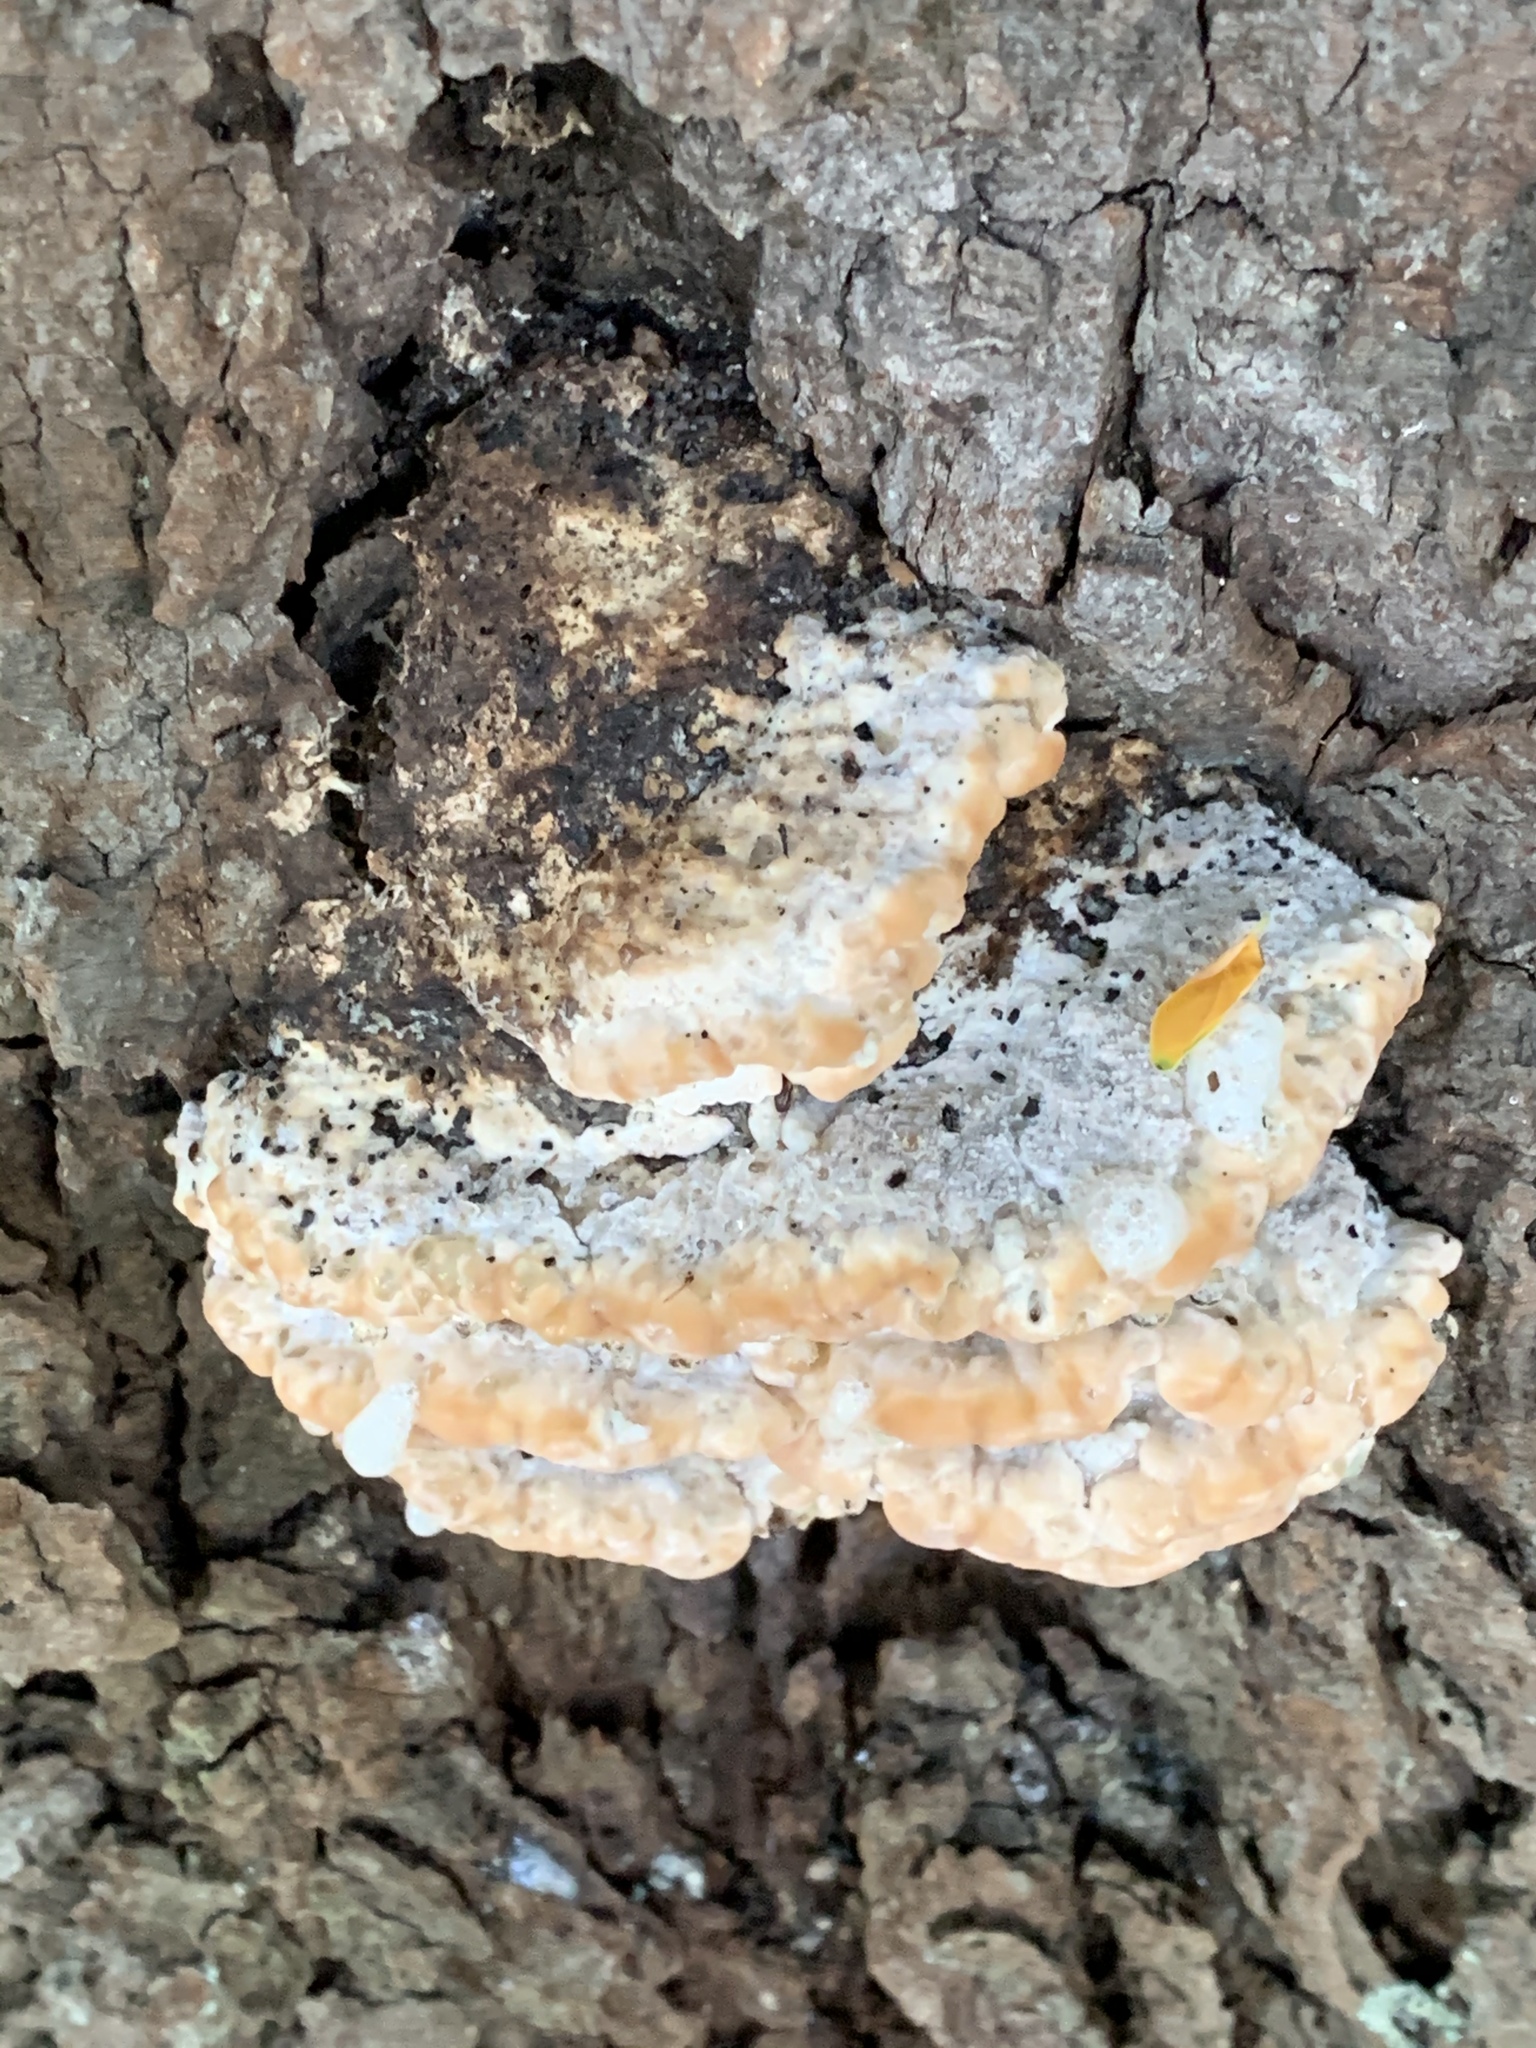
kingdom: Fungi
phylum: Basidiomycota
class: Agaricomycetes
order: Polyporales
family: Fomitopsidaceae
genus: Niveoporofomes
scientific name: Niveoporofomes spraguei
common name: Green cheese polypore
